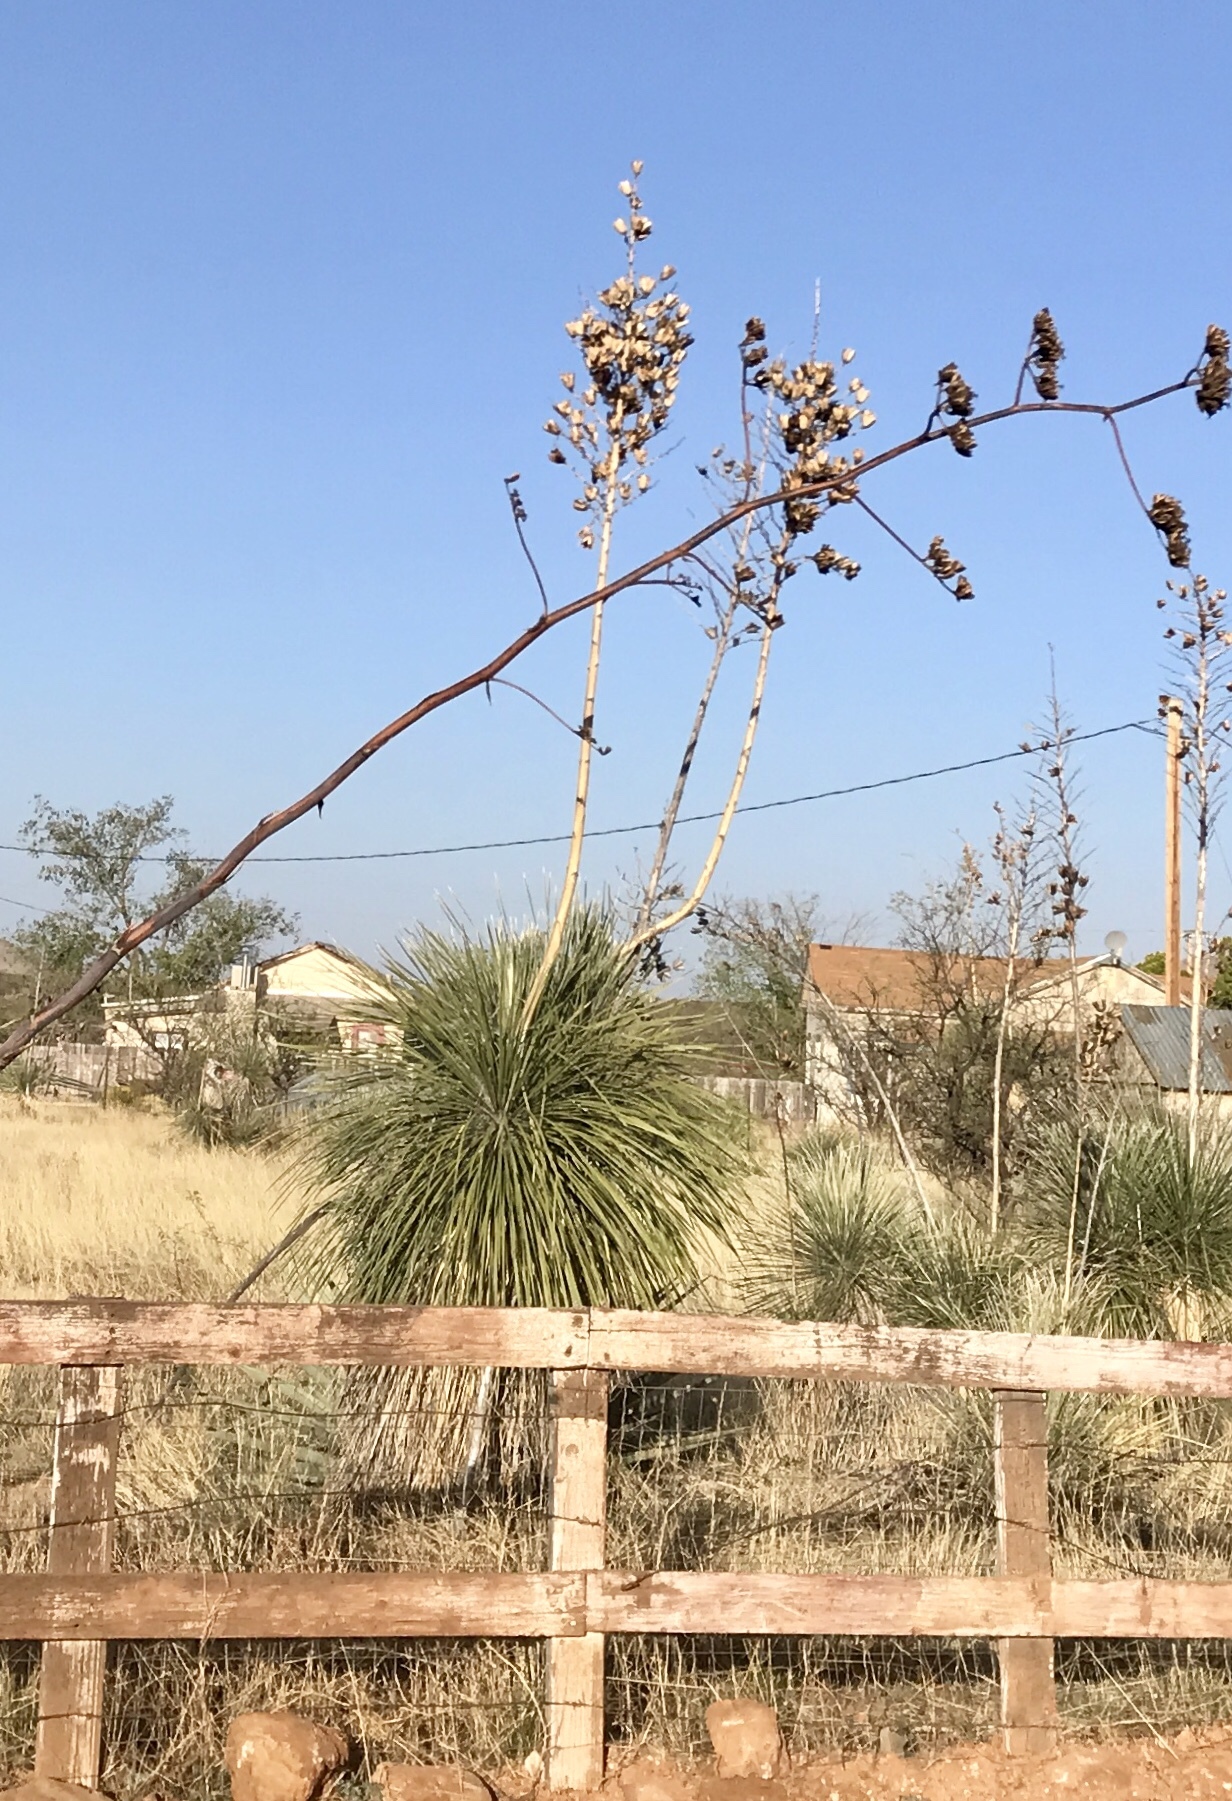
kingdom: Plantae
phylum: Tracheophyta
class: Liliopsida
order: Asparagales
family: Asparagaceae
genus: Yucca
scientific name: Yucca elata
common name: Palmella
